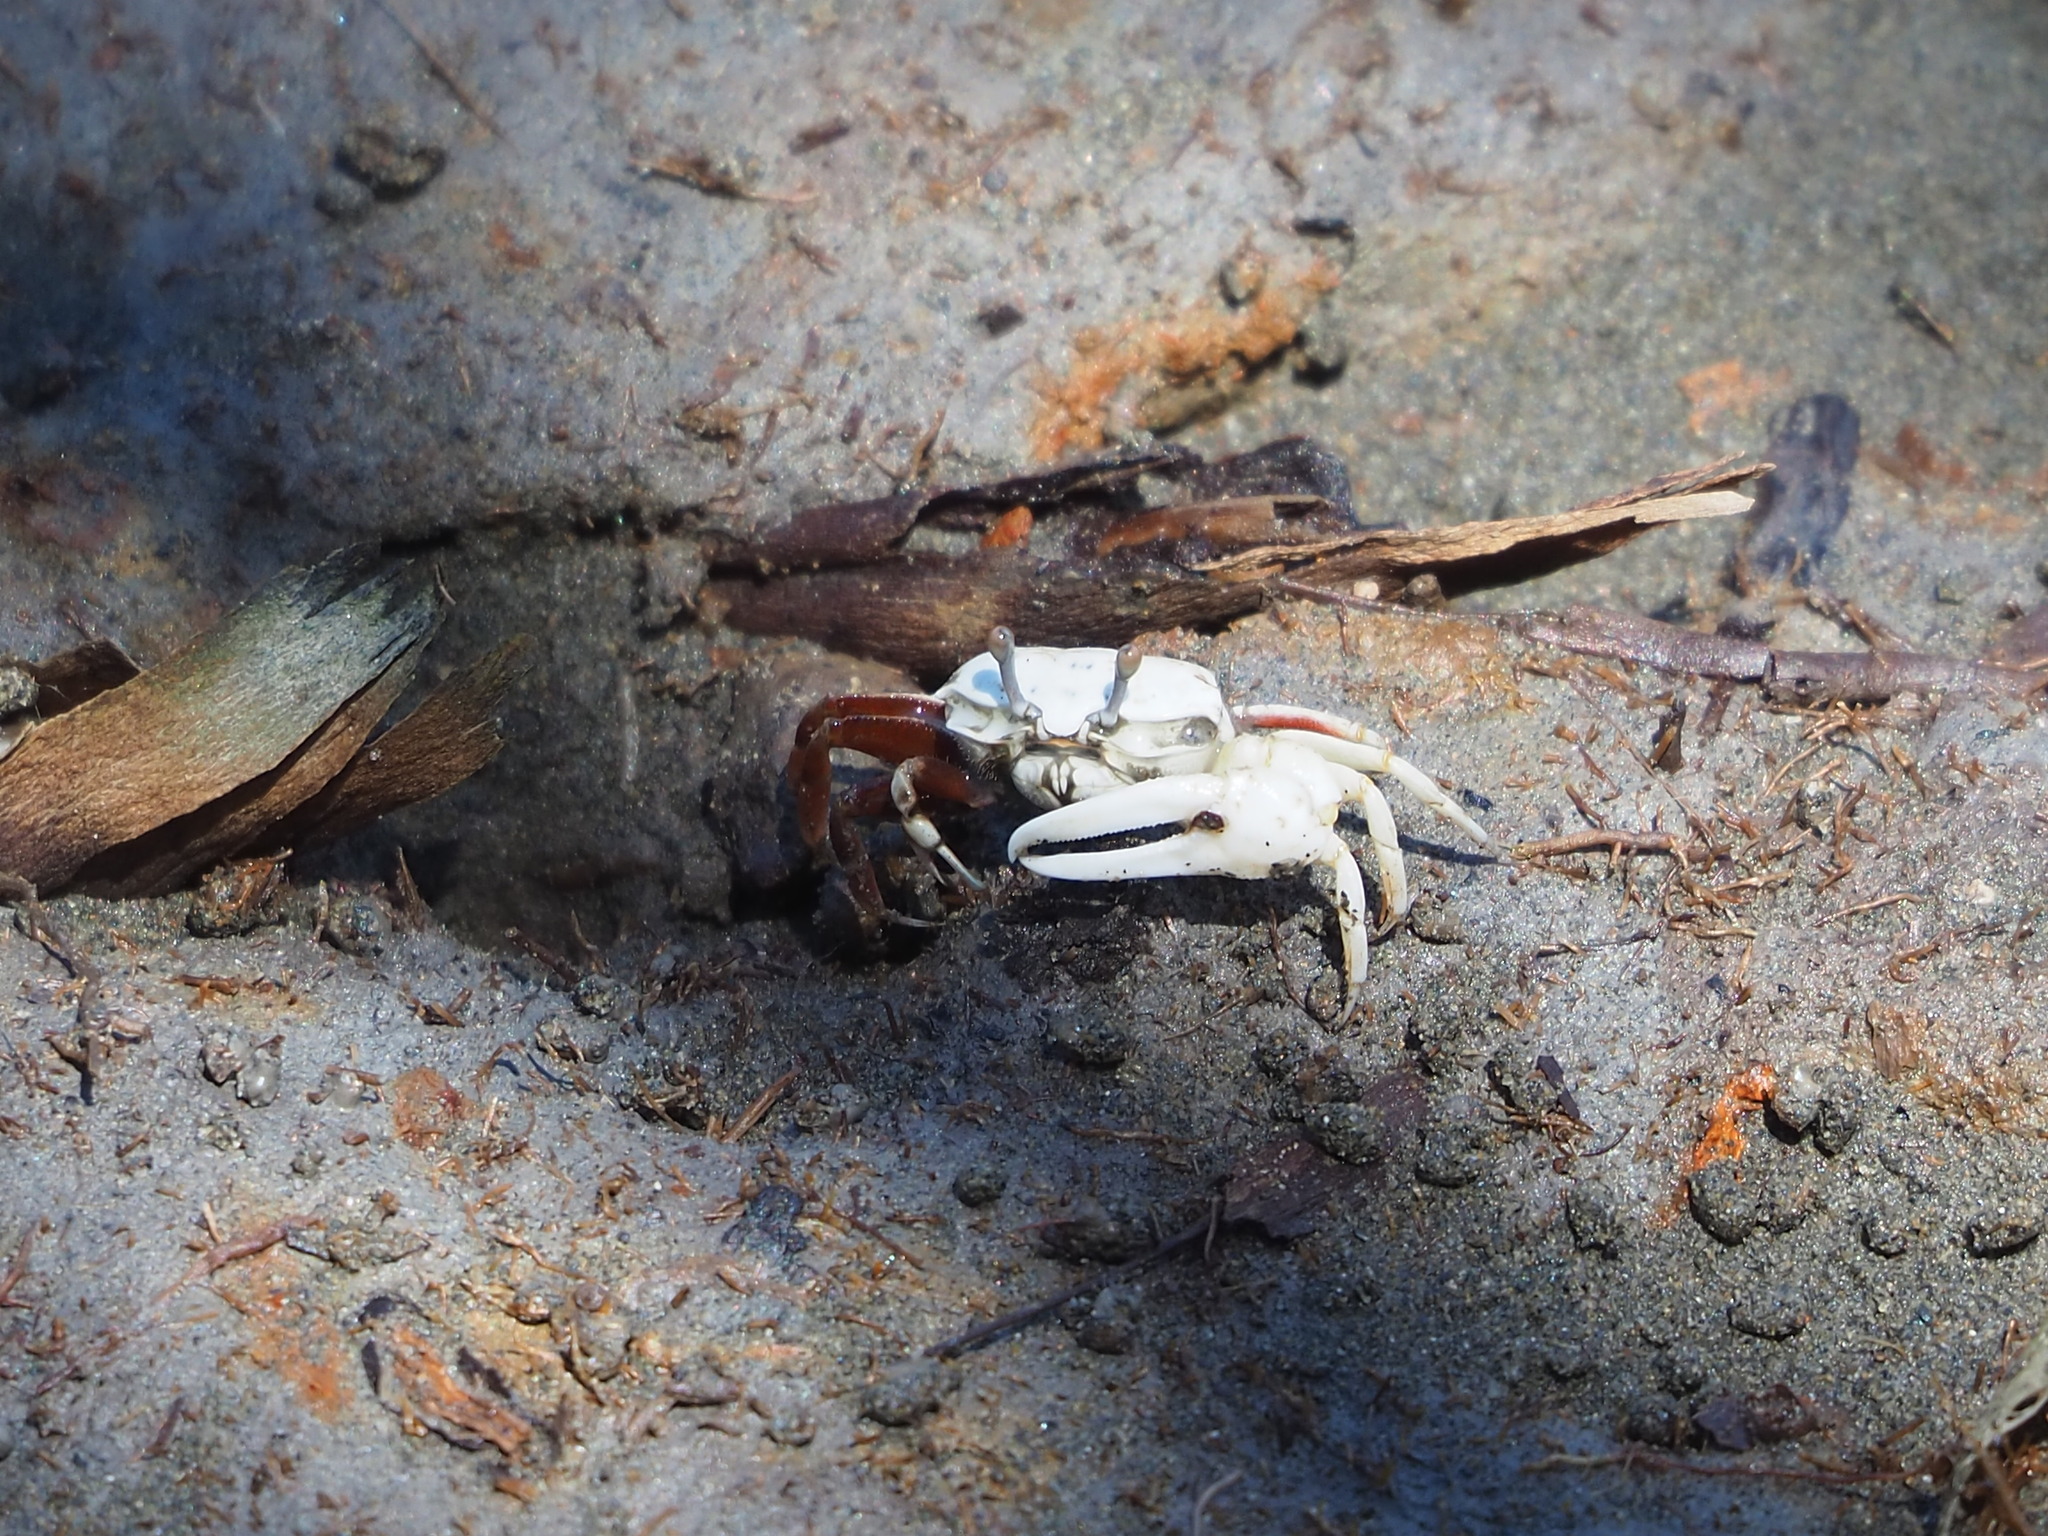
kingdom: Animalia
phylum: Arthropoda
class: Malacostraca
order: Decapoda
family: Ocypodidae
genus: Austruca
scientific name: Austruca lactea
